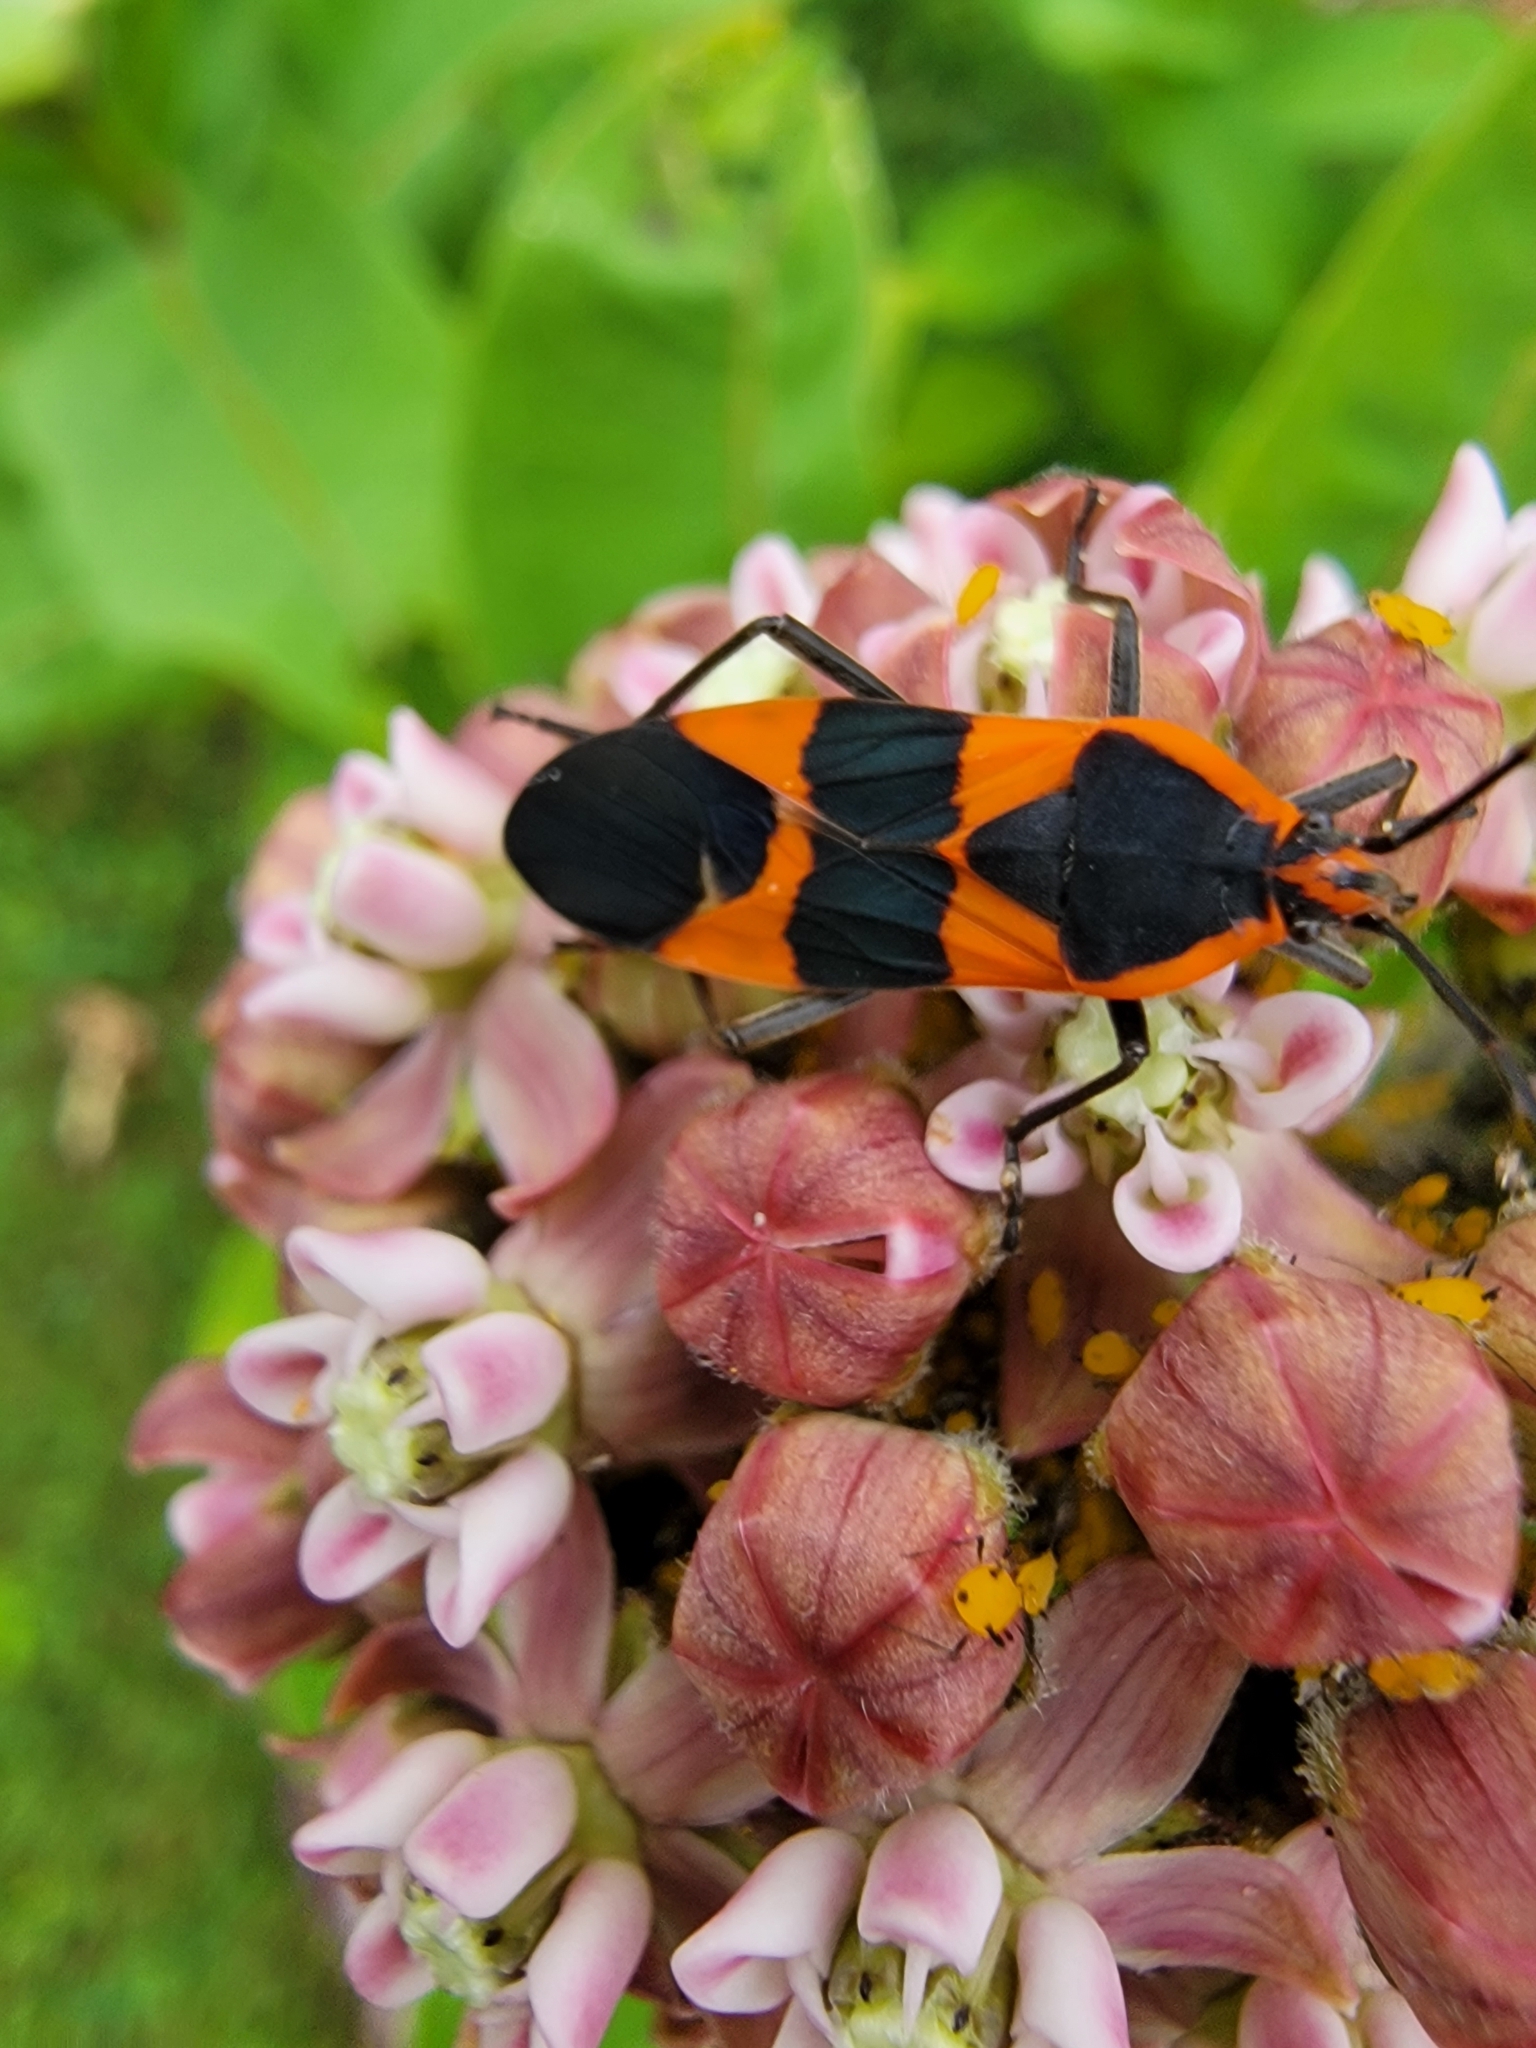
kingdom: Animalia
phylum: Arthropoda
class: Insecta
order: Hemiptera
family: Lygaeidae
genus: Oncopeltus
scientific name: Oncopeltus fasciatus
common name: Large milkweed bug
